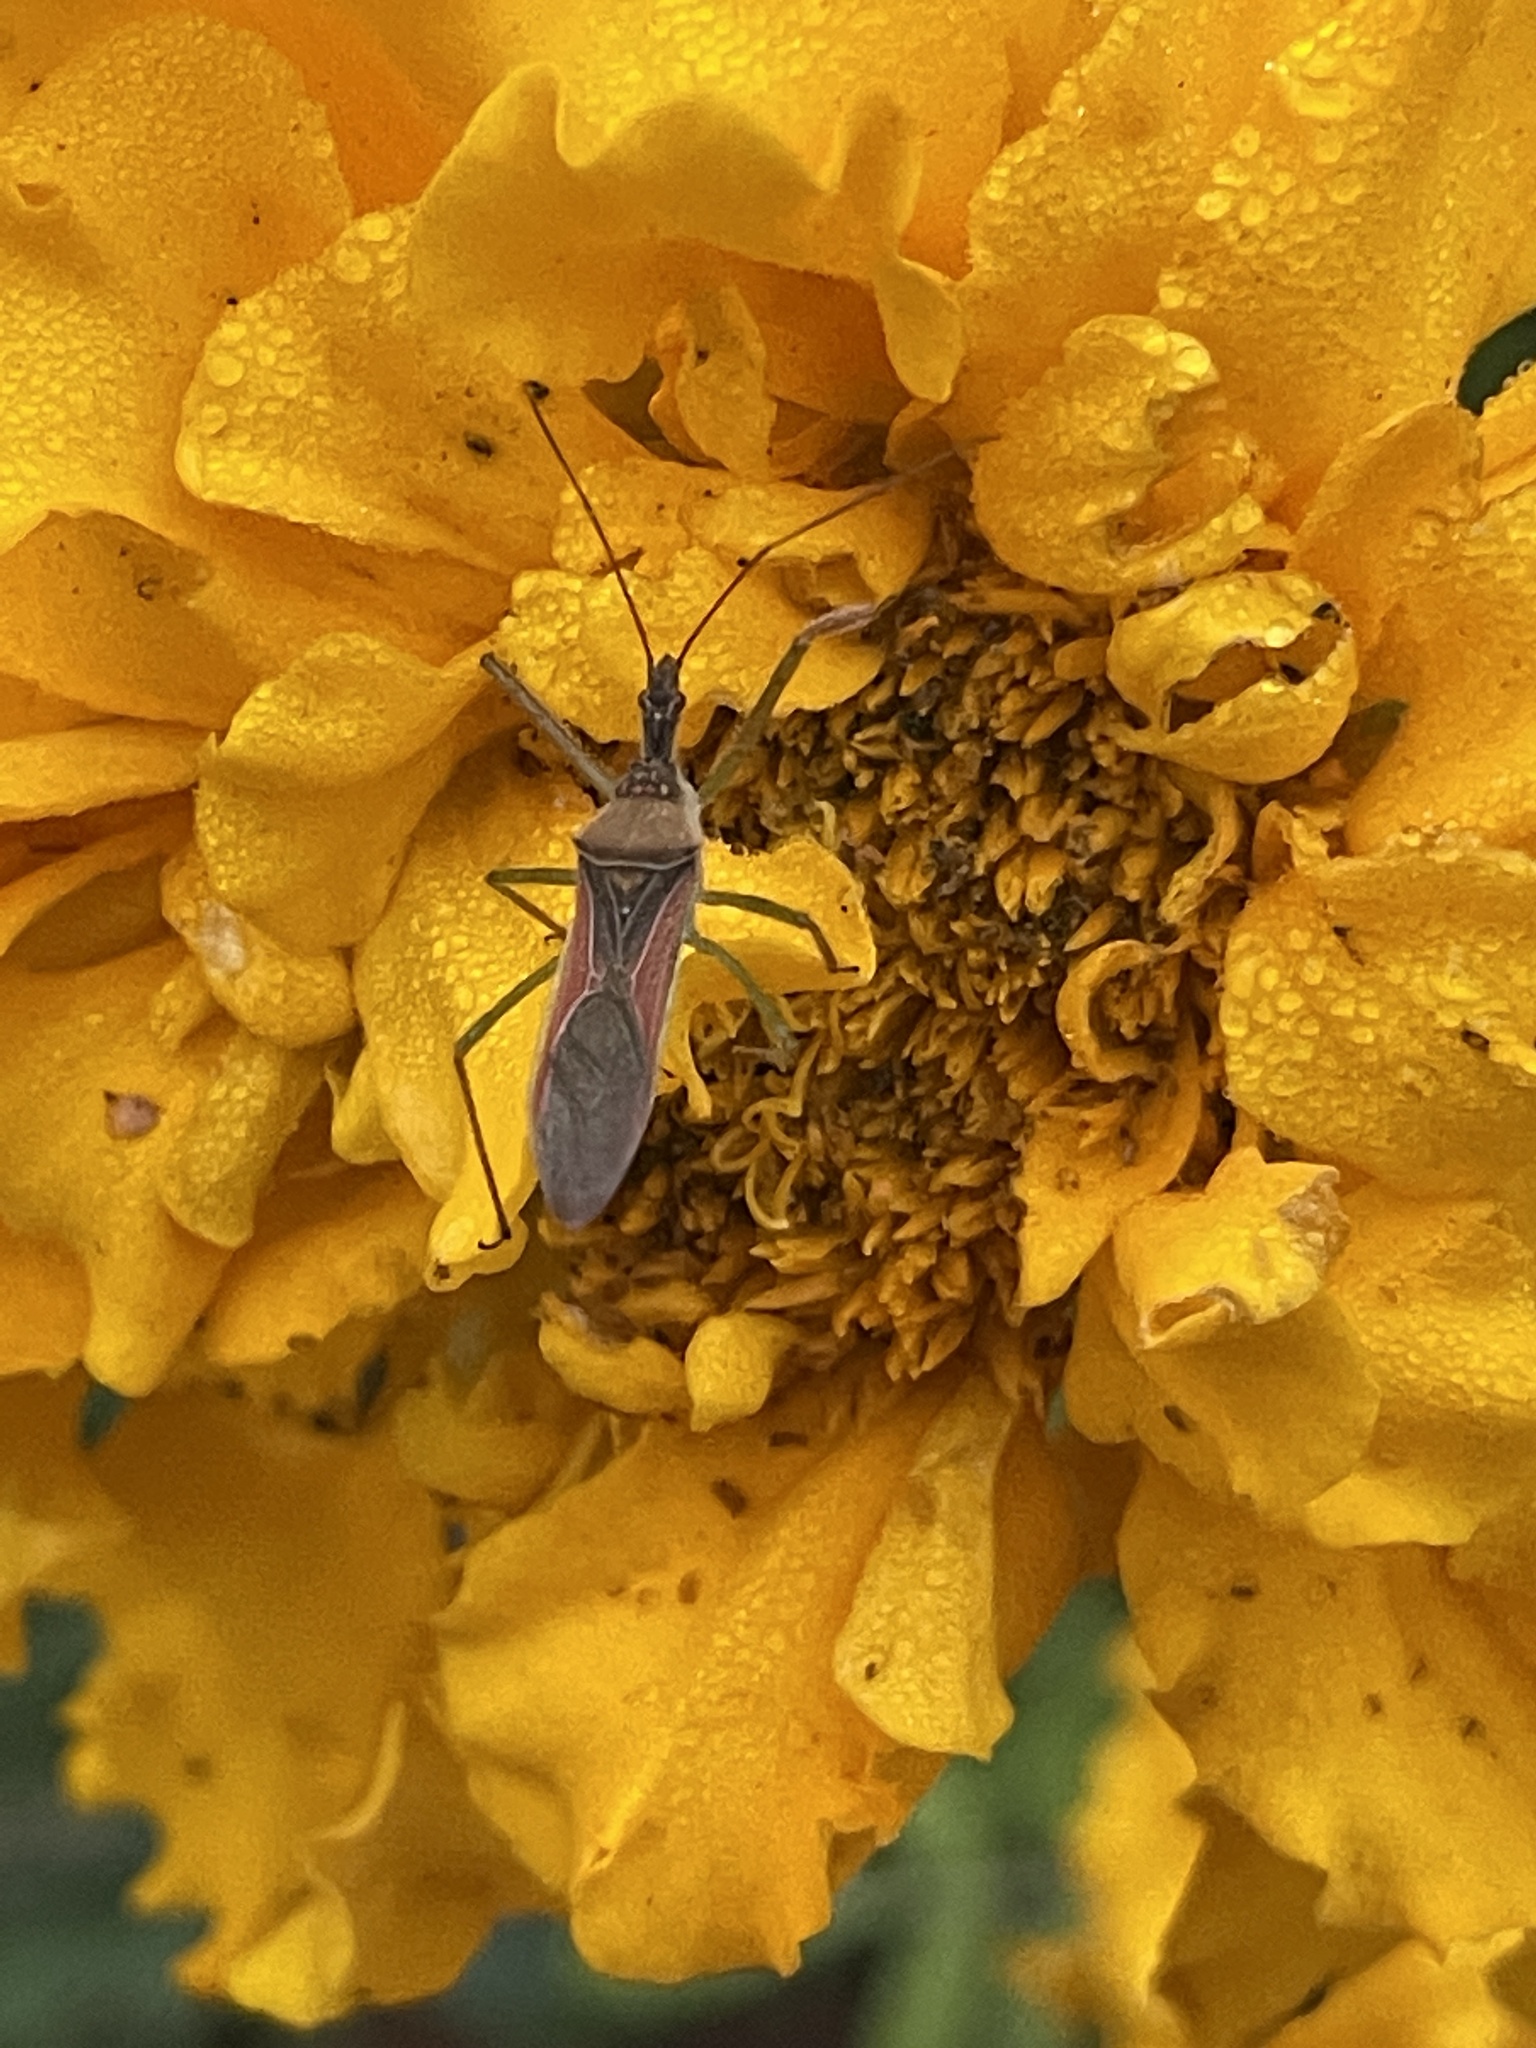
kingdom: Animalia
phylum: Arthropoda
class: Insecta
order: Hemiptera
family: Reduviidae
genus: Zelus
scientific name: Zelus renardii
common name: Assassin bug
